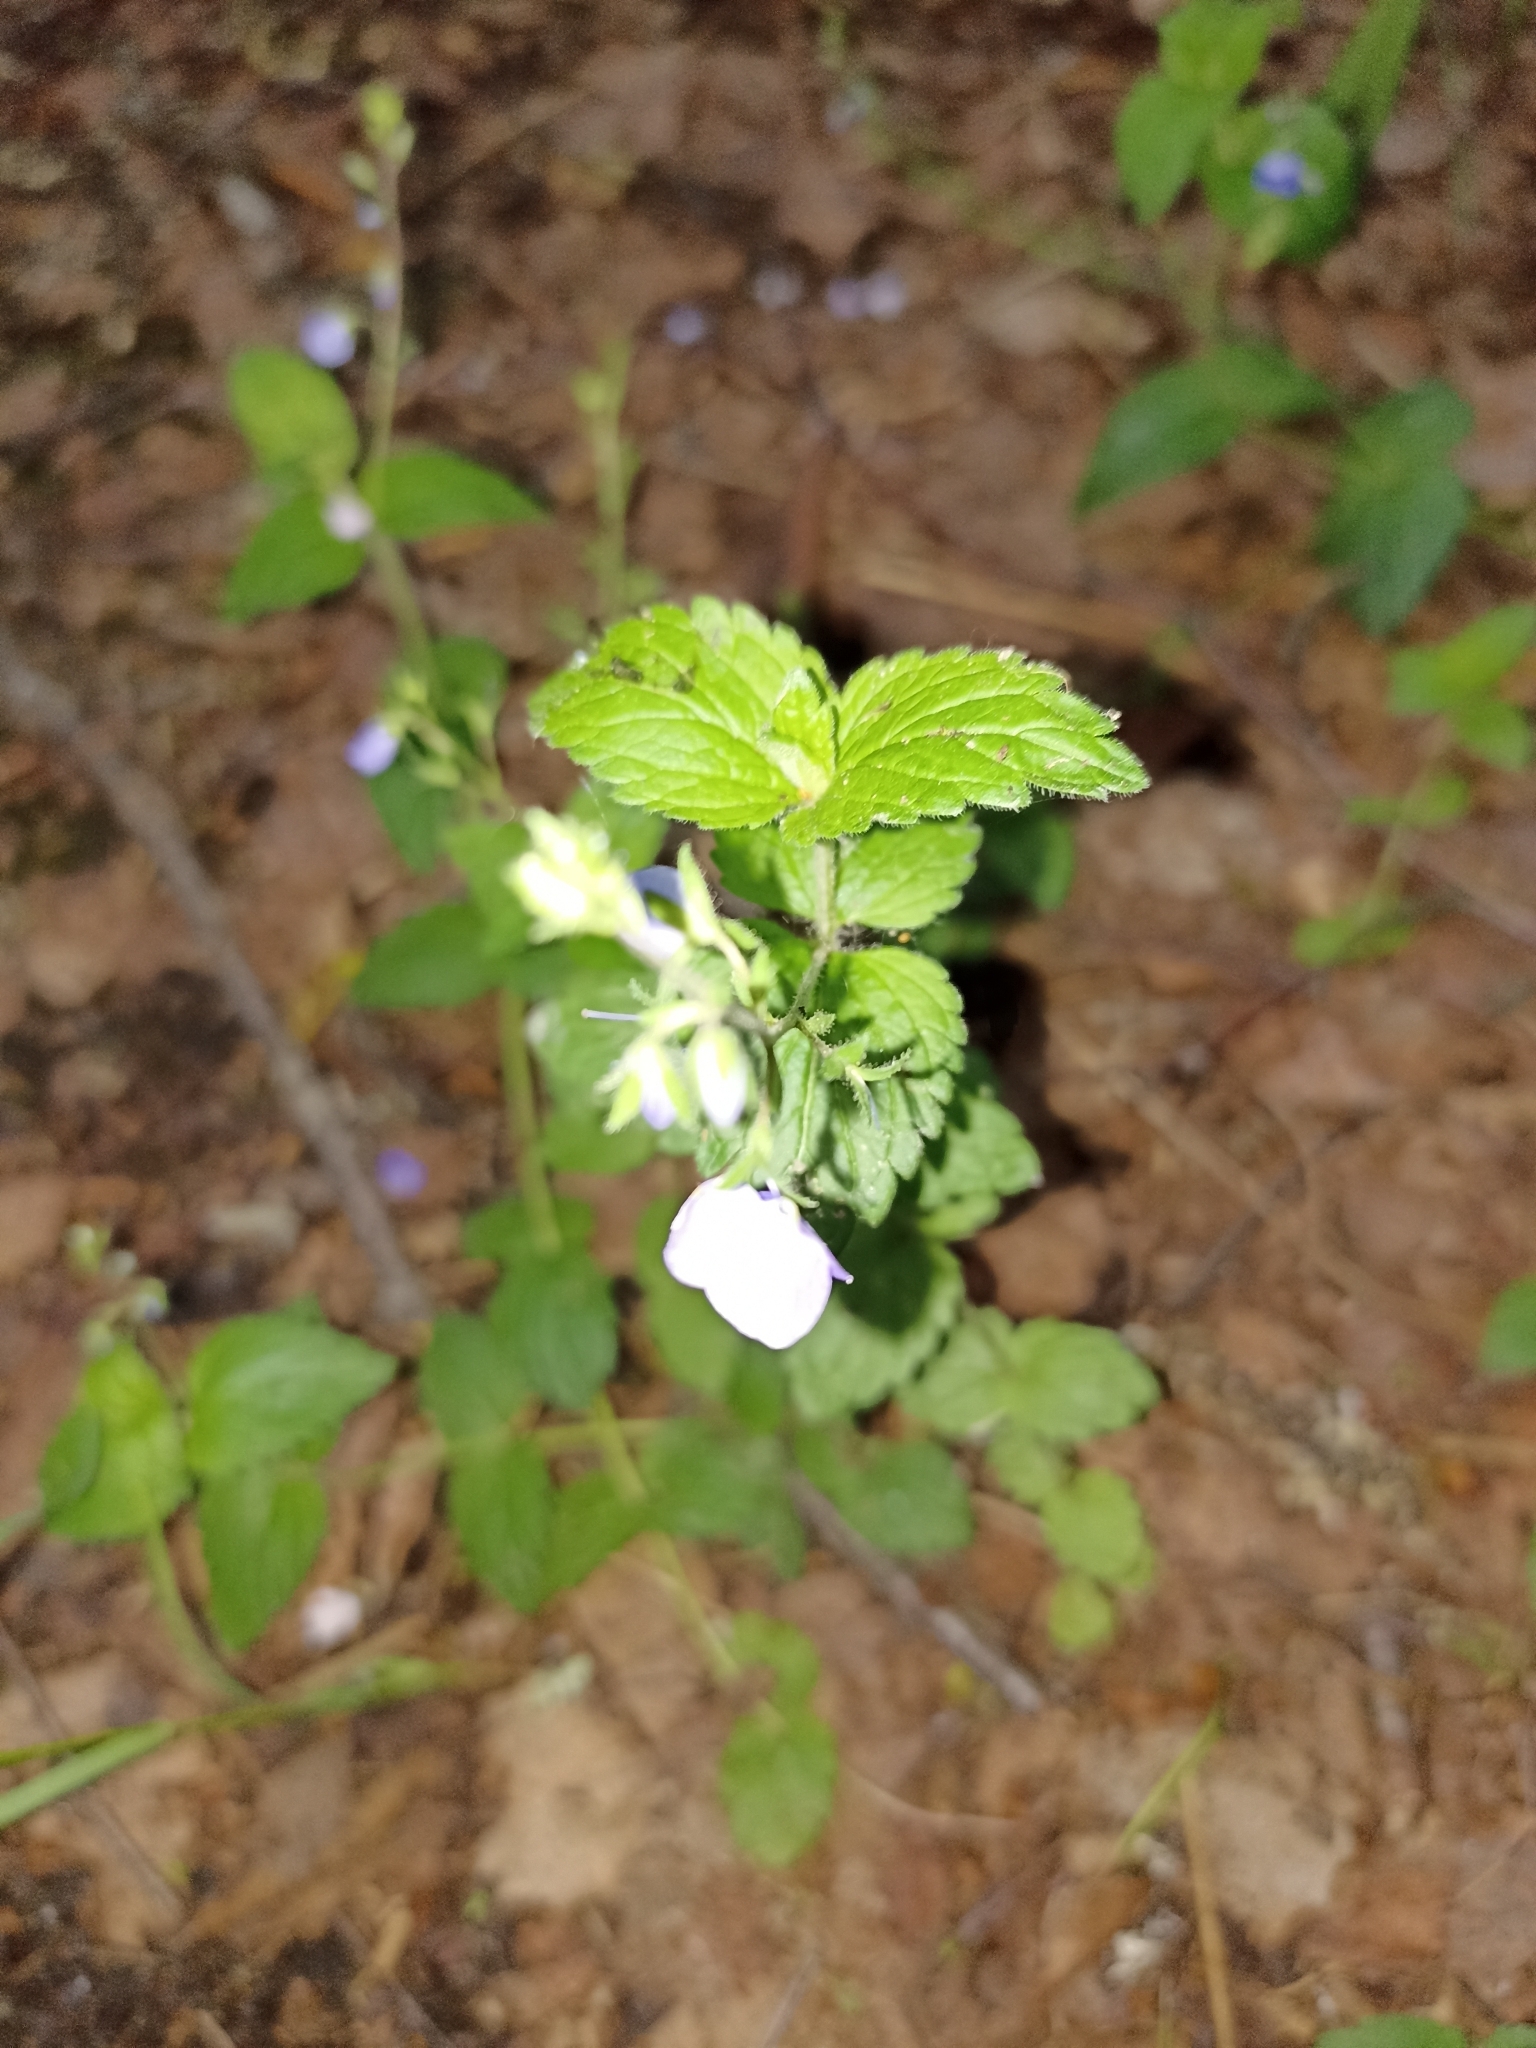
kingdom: Plantae
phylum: Tracheophyta
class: Magnoliopsida
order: Lamiales
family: Plantaginaceae
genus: Veronica
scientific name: Veronica chamaedrys
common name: Germander speedwell
